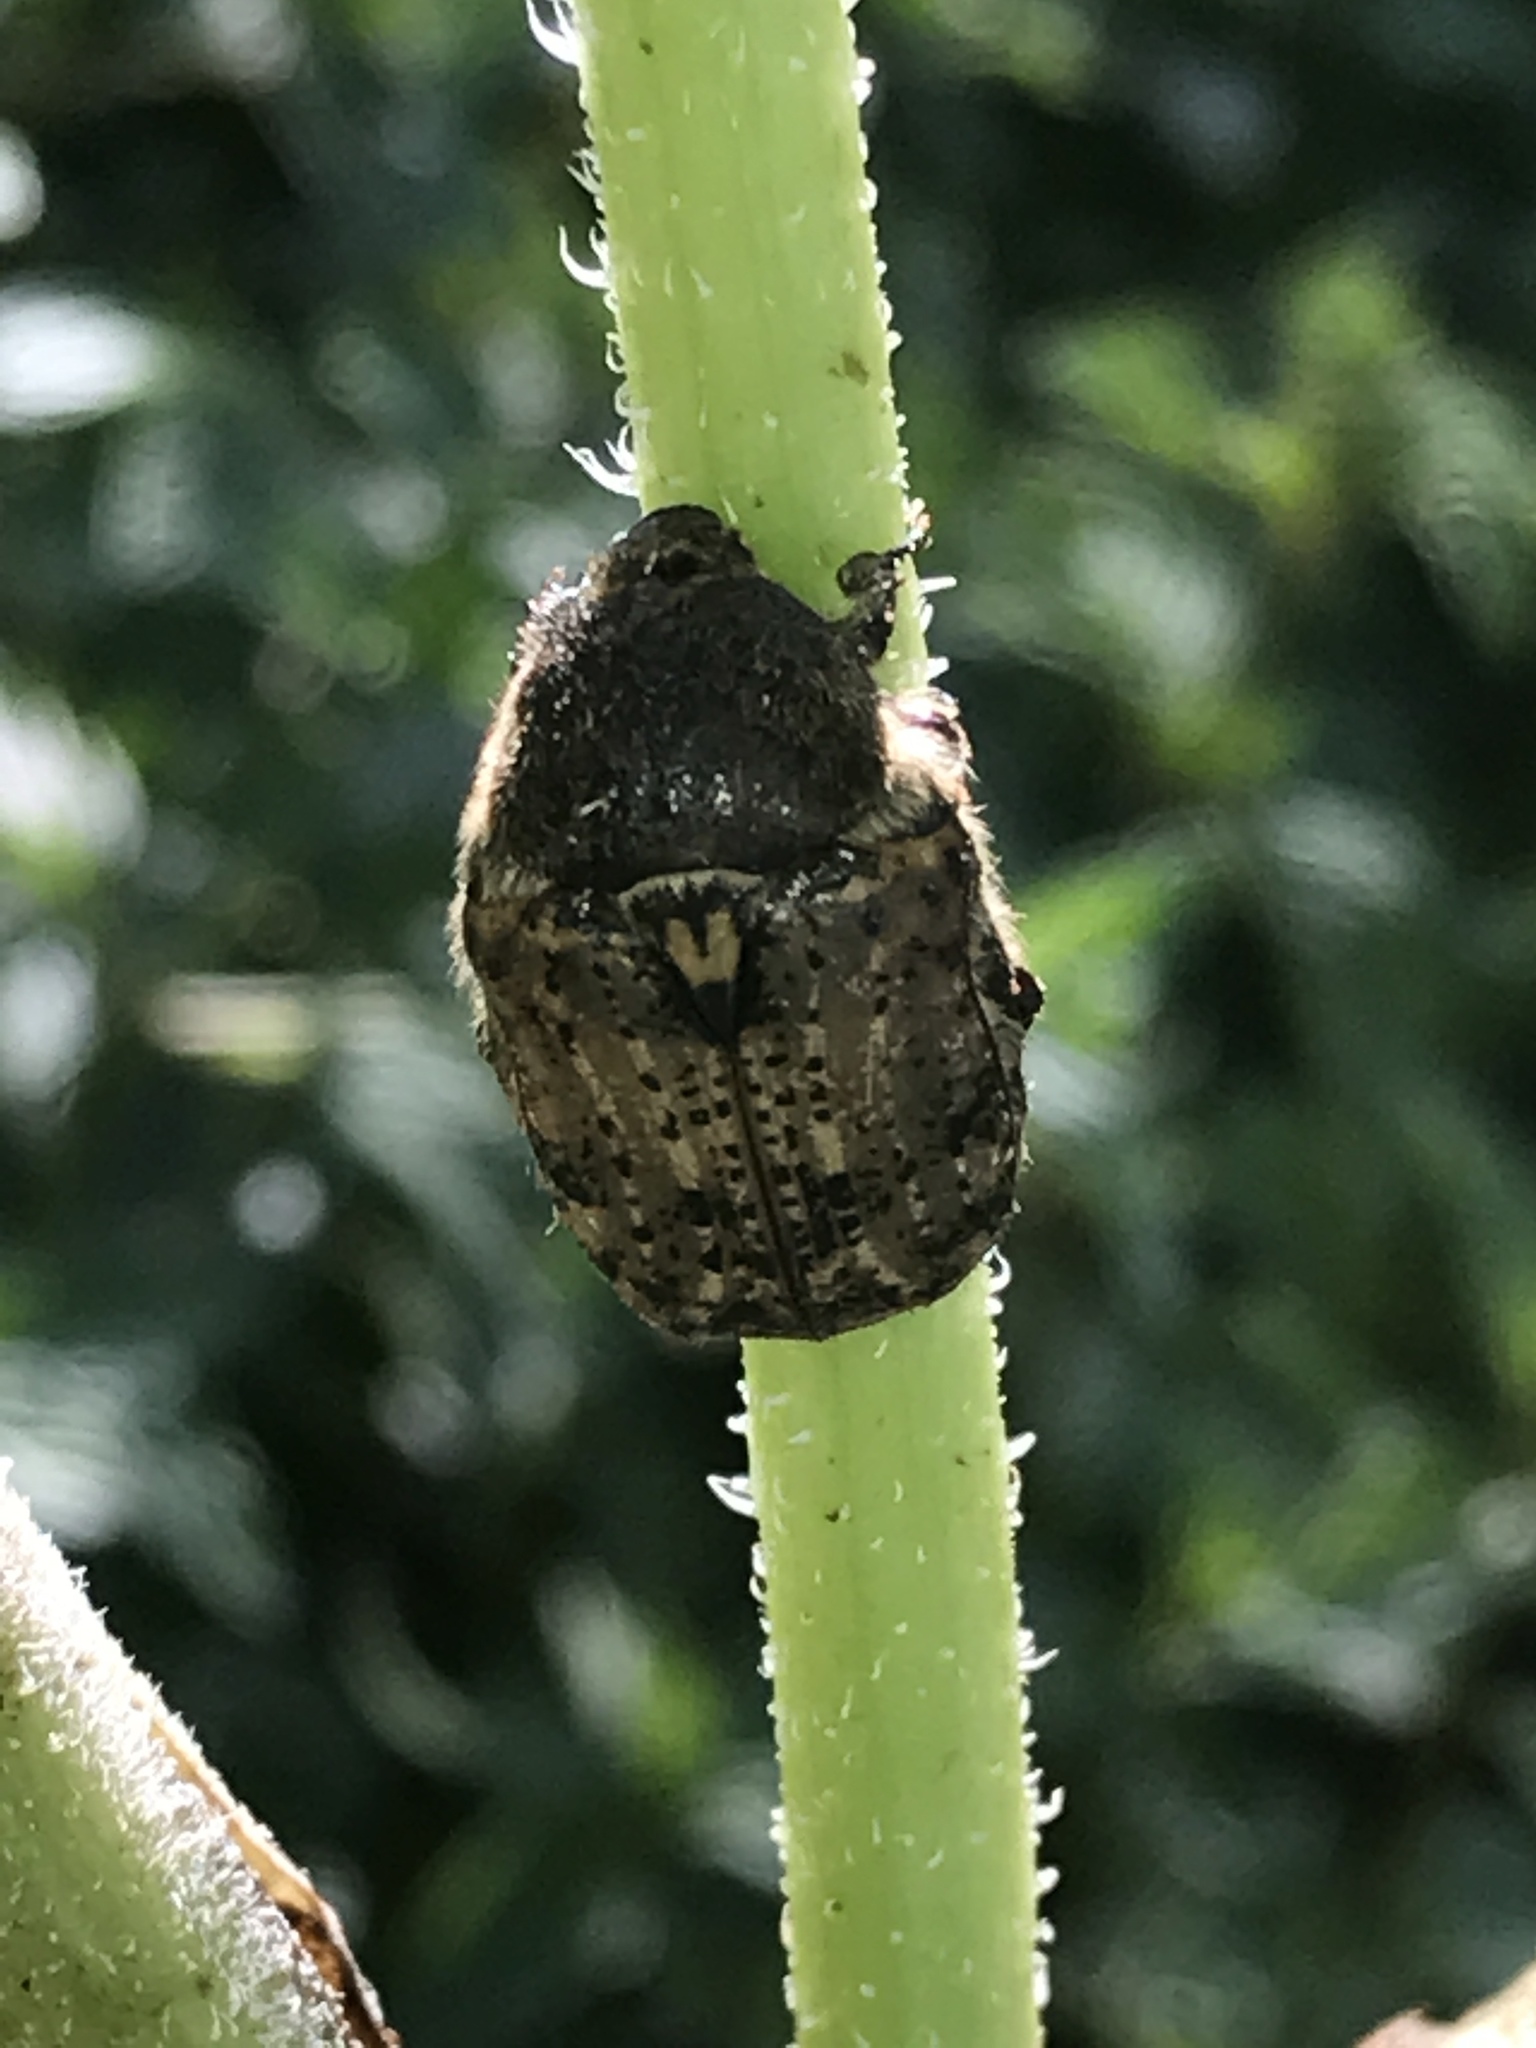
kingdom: Animalia
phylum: Arthropoda
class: Insecta
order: Coleoptera
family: Scarabaeidae
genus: Euphoria
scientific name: Euphoria inda
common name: Bumble flower beetle
